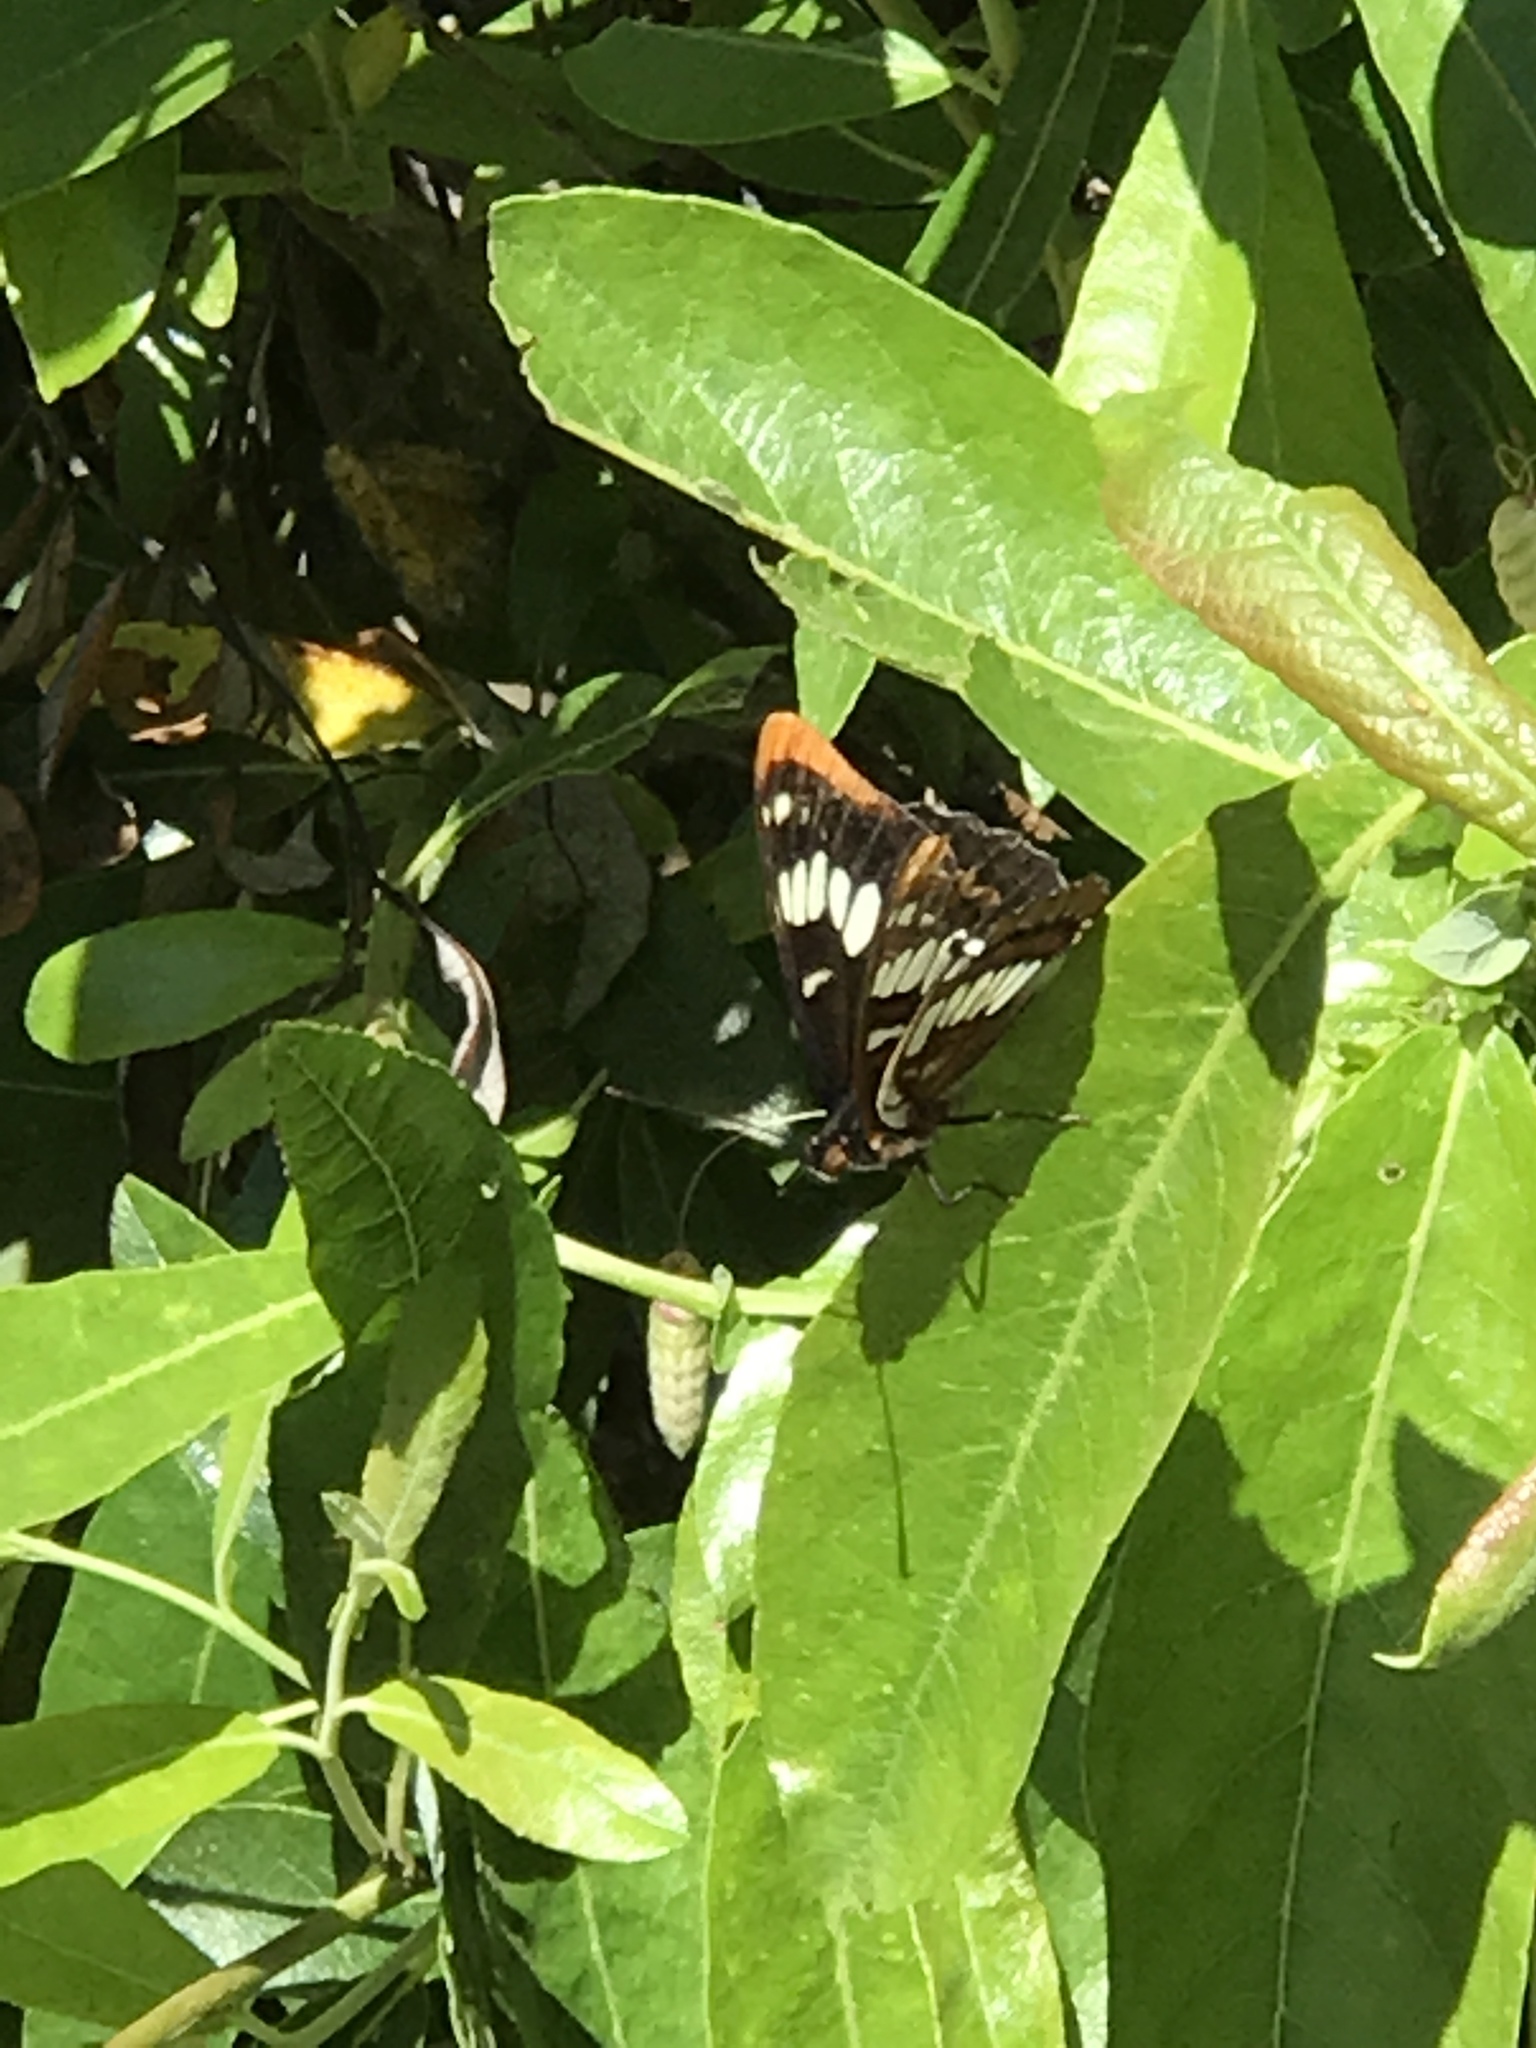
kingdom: Animalia
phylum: Arthropoda
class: Insecta
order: Lepidoptera
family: Nymphalidae
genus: Limenitis
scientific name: Limenitis lorquini
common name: Lorquin's admiral
